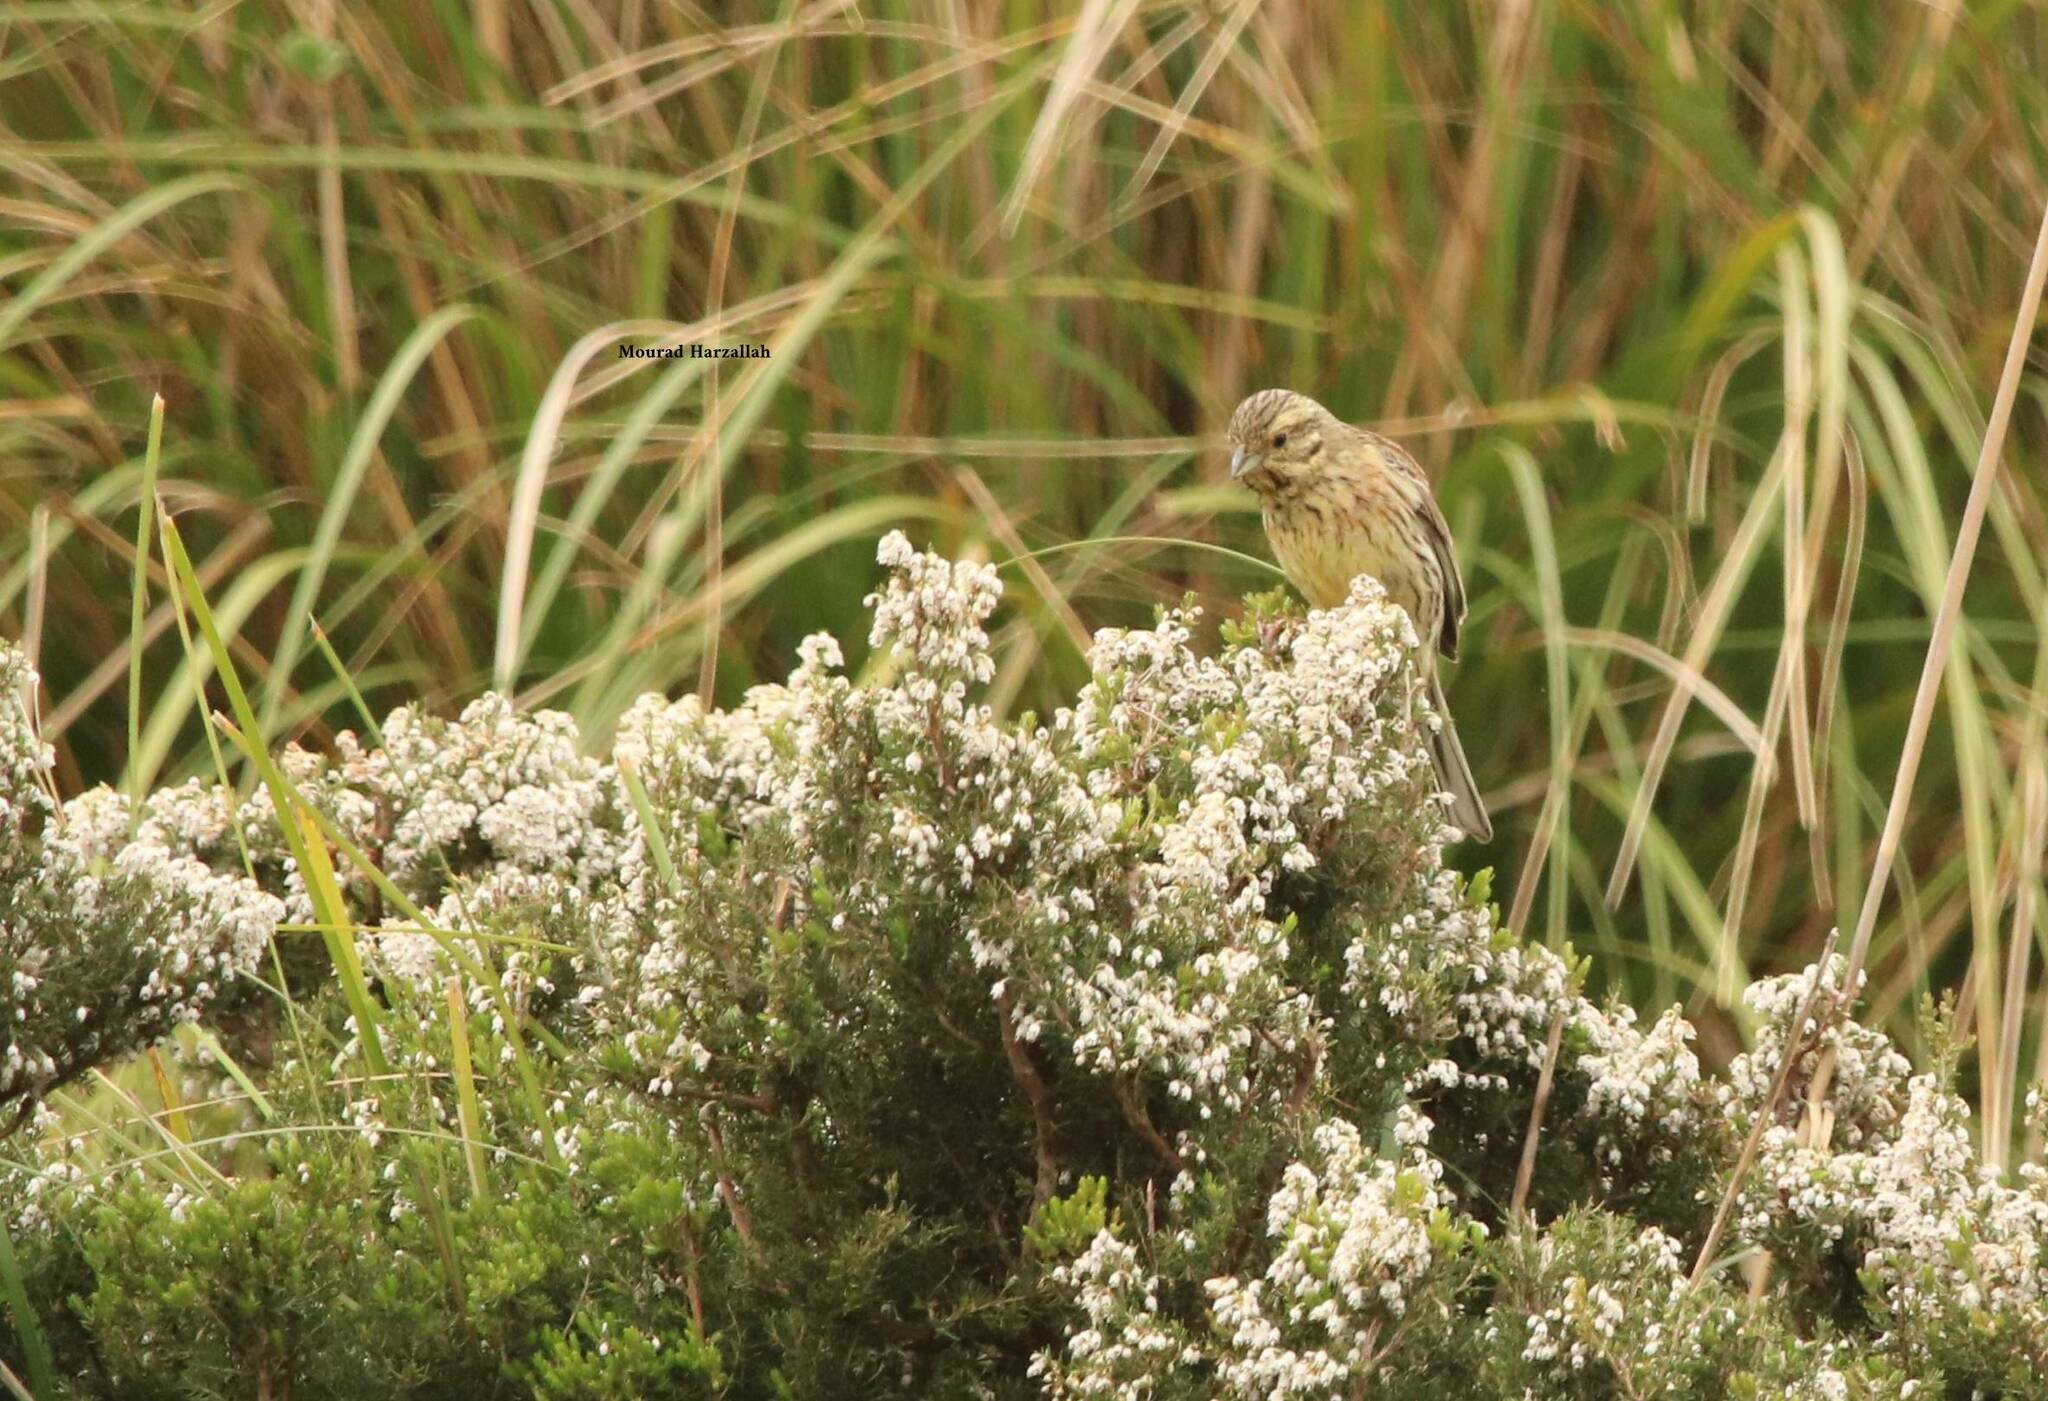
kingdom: Animalia
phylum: Chordata
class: Aves
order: Passeriformes
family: Emberizidae
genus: Emberiza
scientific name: Emberiza cirlus
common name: Cirl bunting
